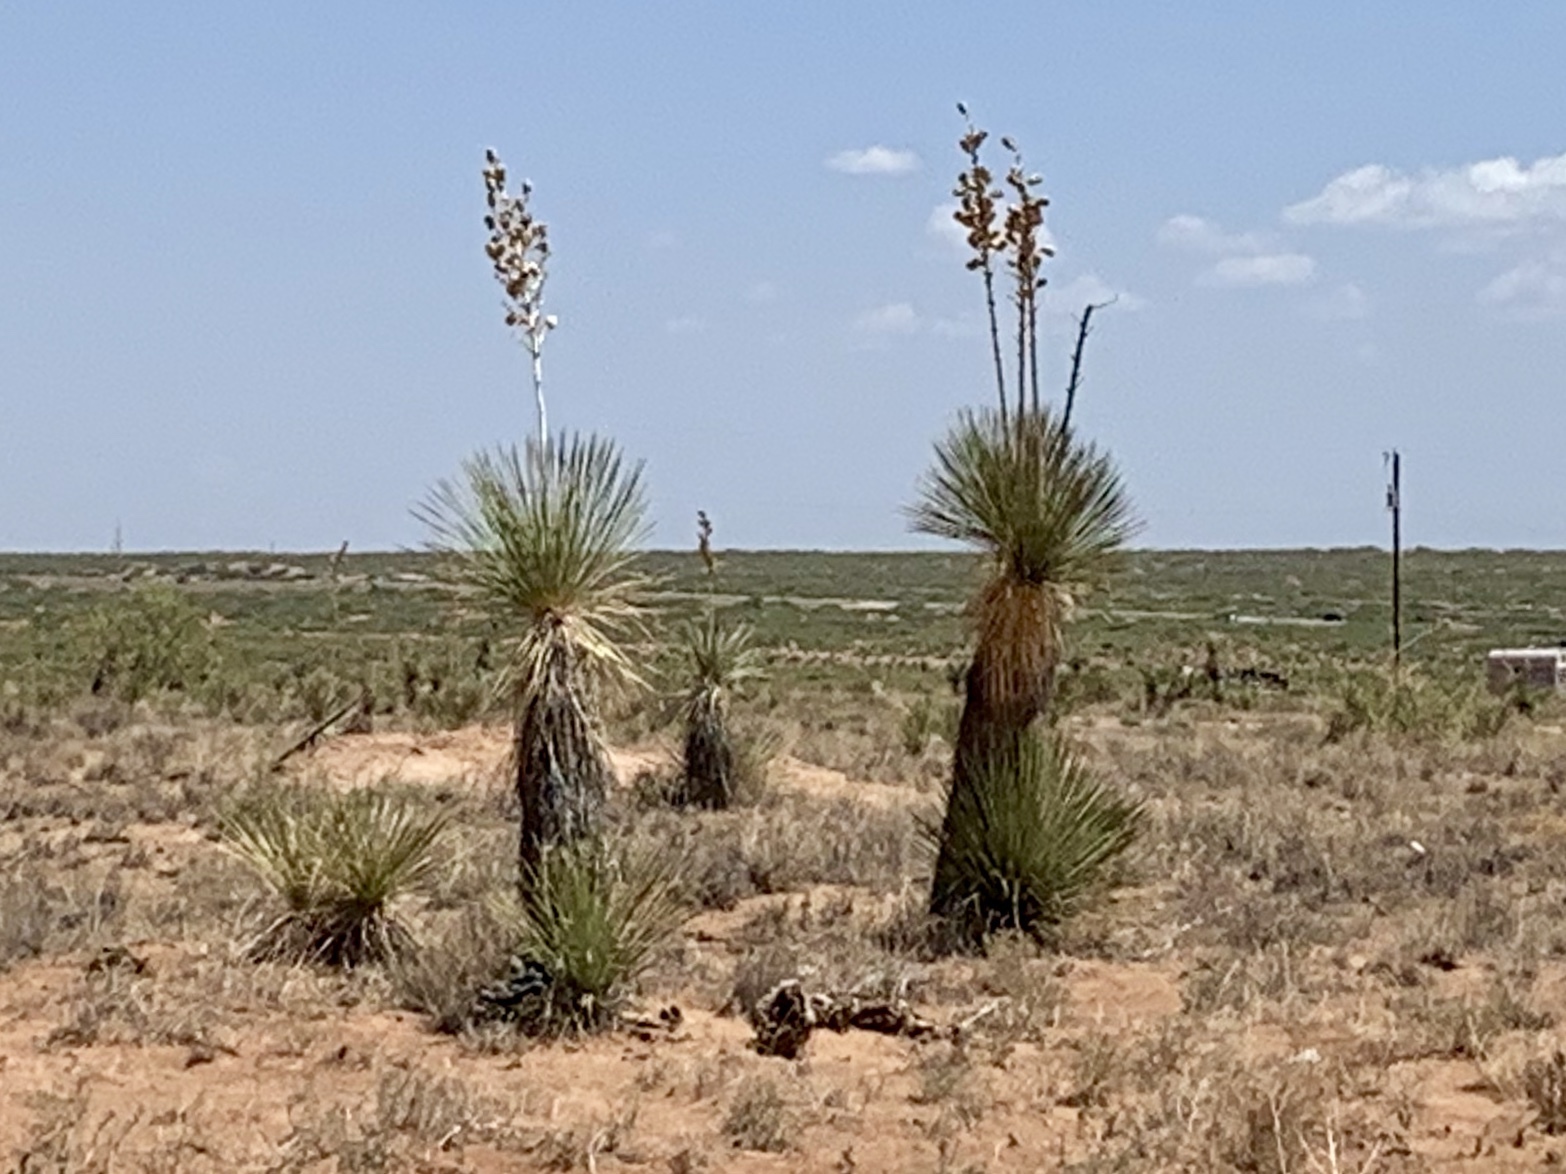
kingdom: Plantae
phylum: Tracheophyta
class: Liliopsida
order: Asparagales
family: Asparagaceae
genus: Yucca
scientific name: Yucca elata
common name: Palmella
